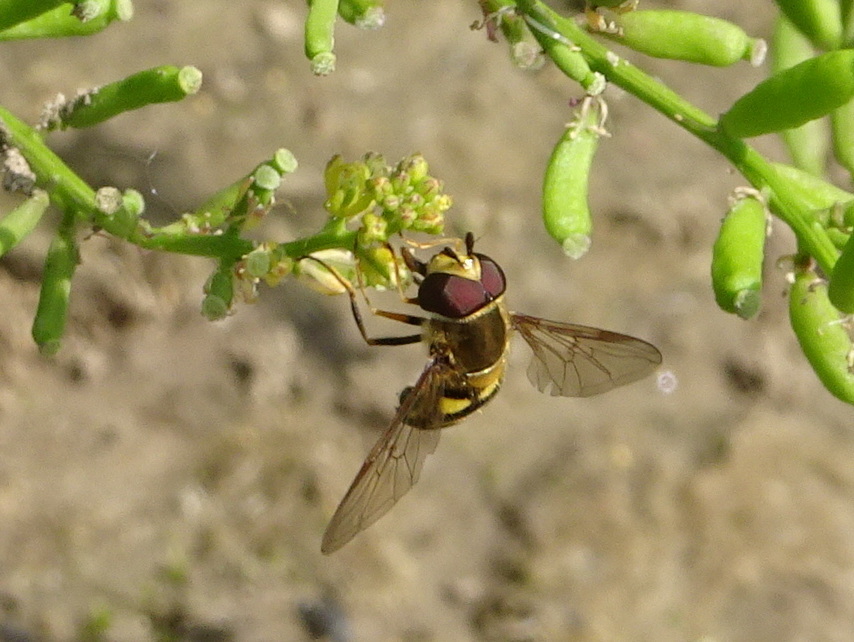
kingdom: Animalia
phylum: Arthropoda
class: Insecta
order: Diptera
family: Syrphidae
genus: Eupeodes
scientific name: Eupeodes
